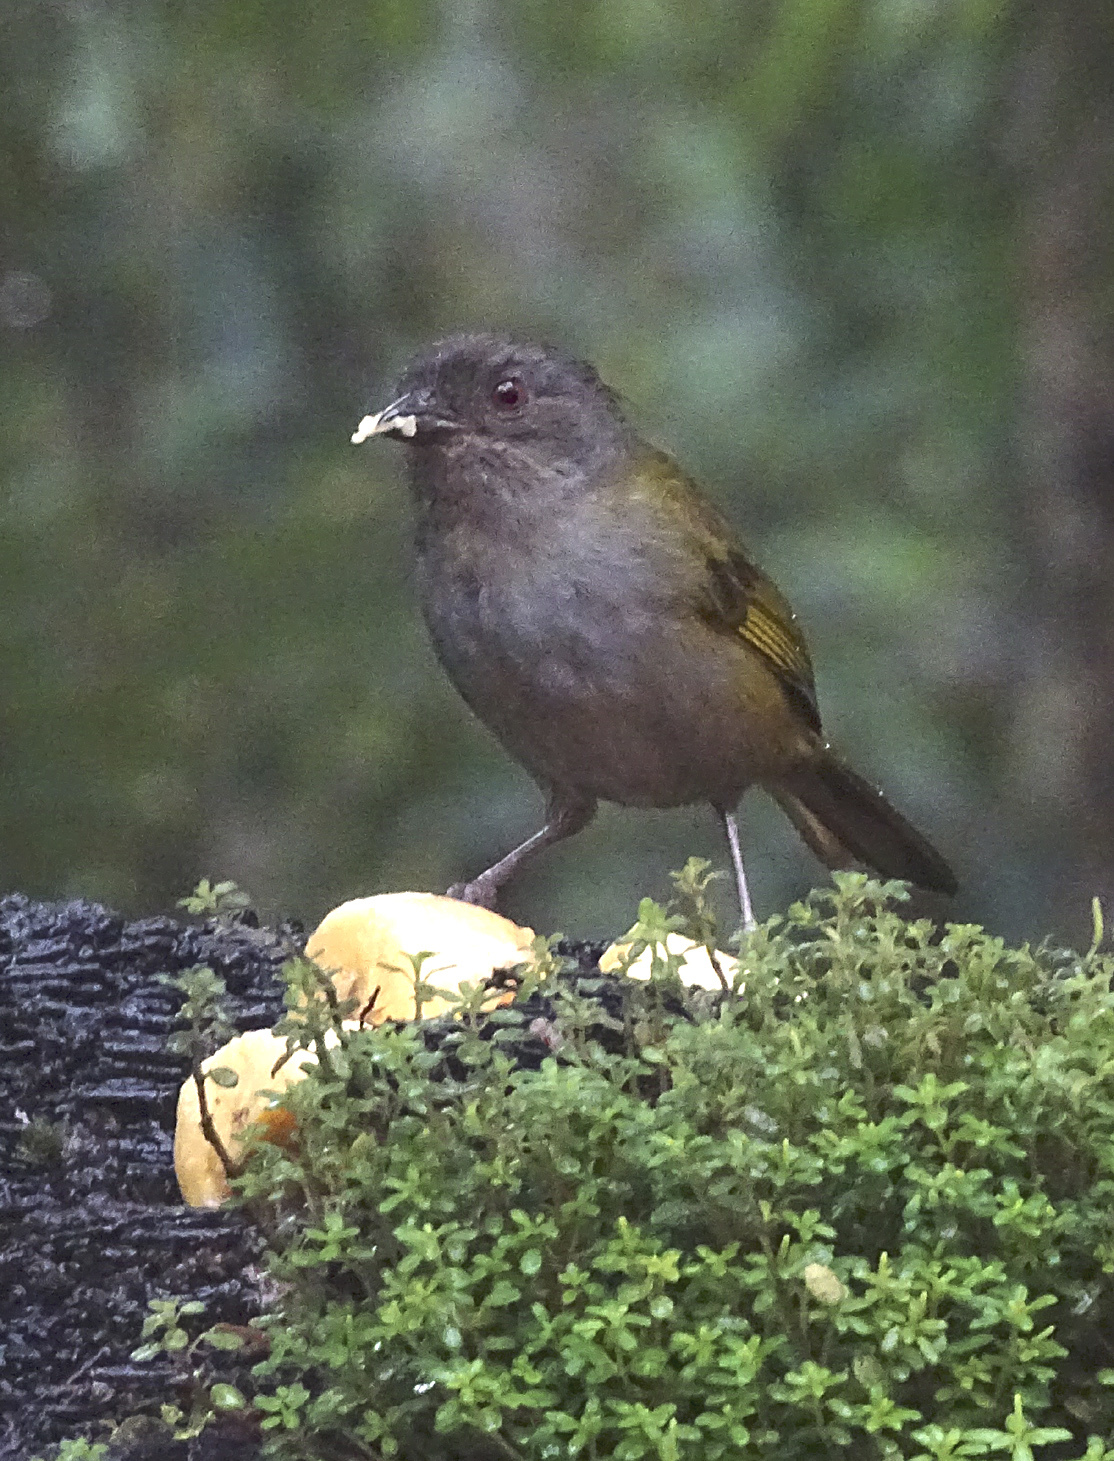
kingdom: Animalia
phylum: Chordata
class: Aves
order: Passeriformes
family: Passerellidae
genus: Chlorospingus
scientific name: Chlorospingus semifuscus
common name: Dusky bush-tanager
